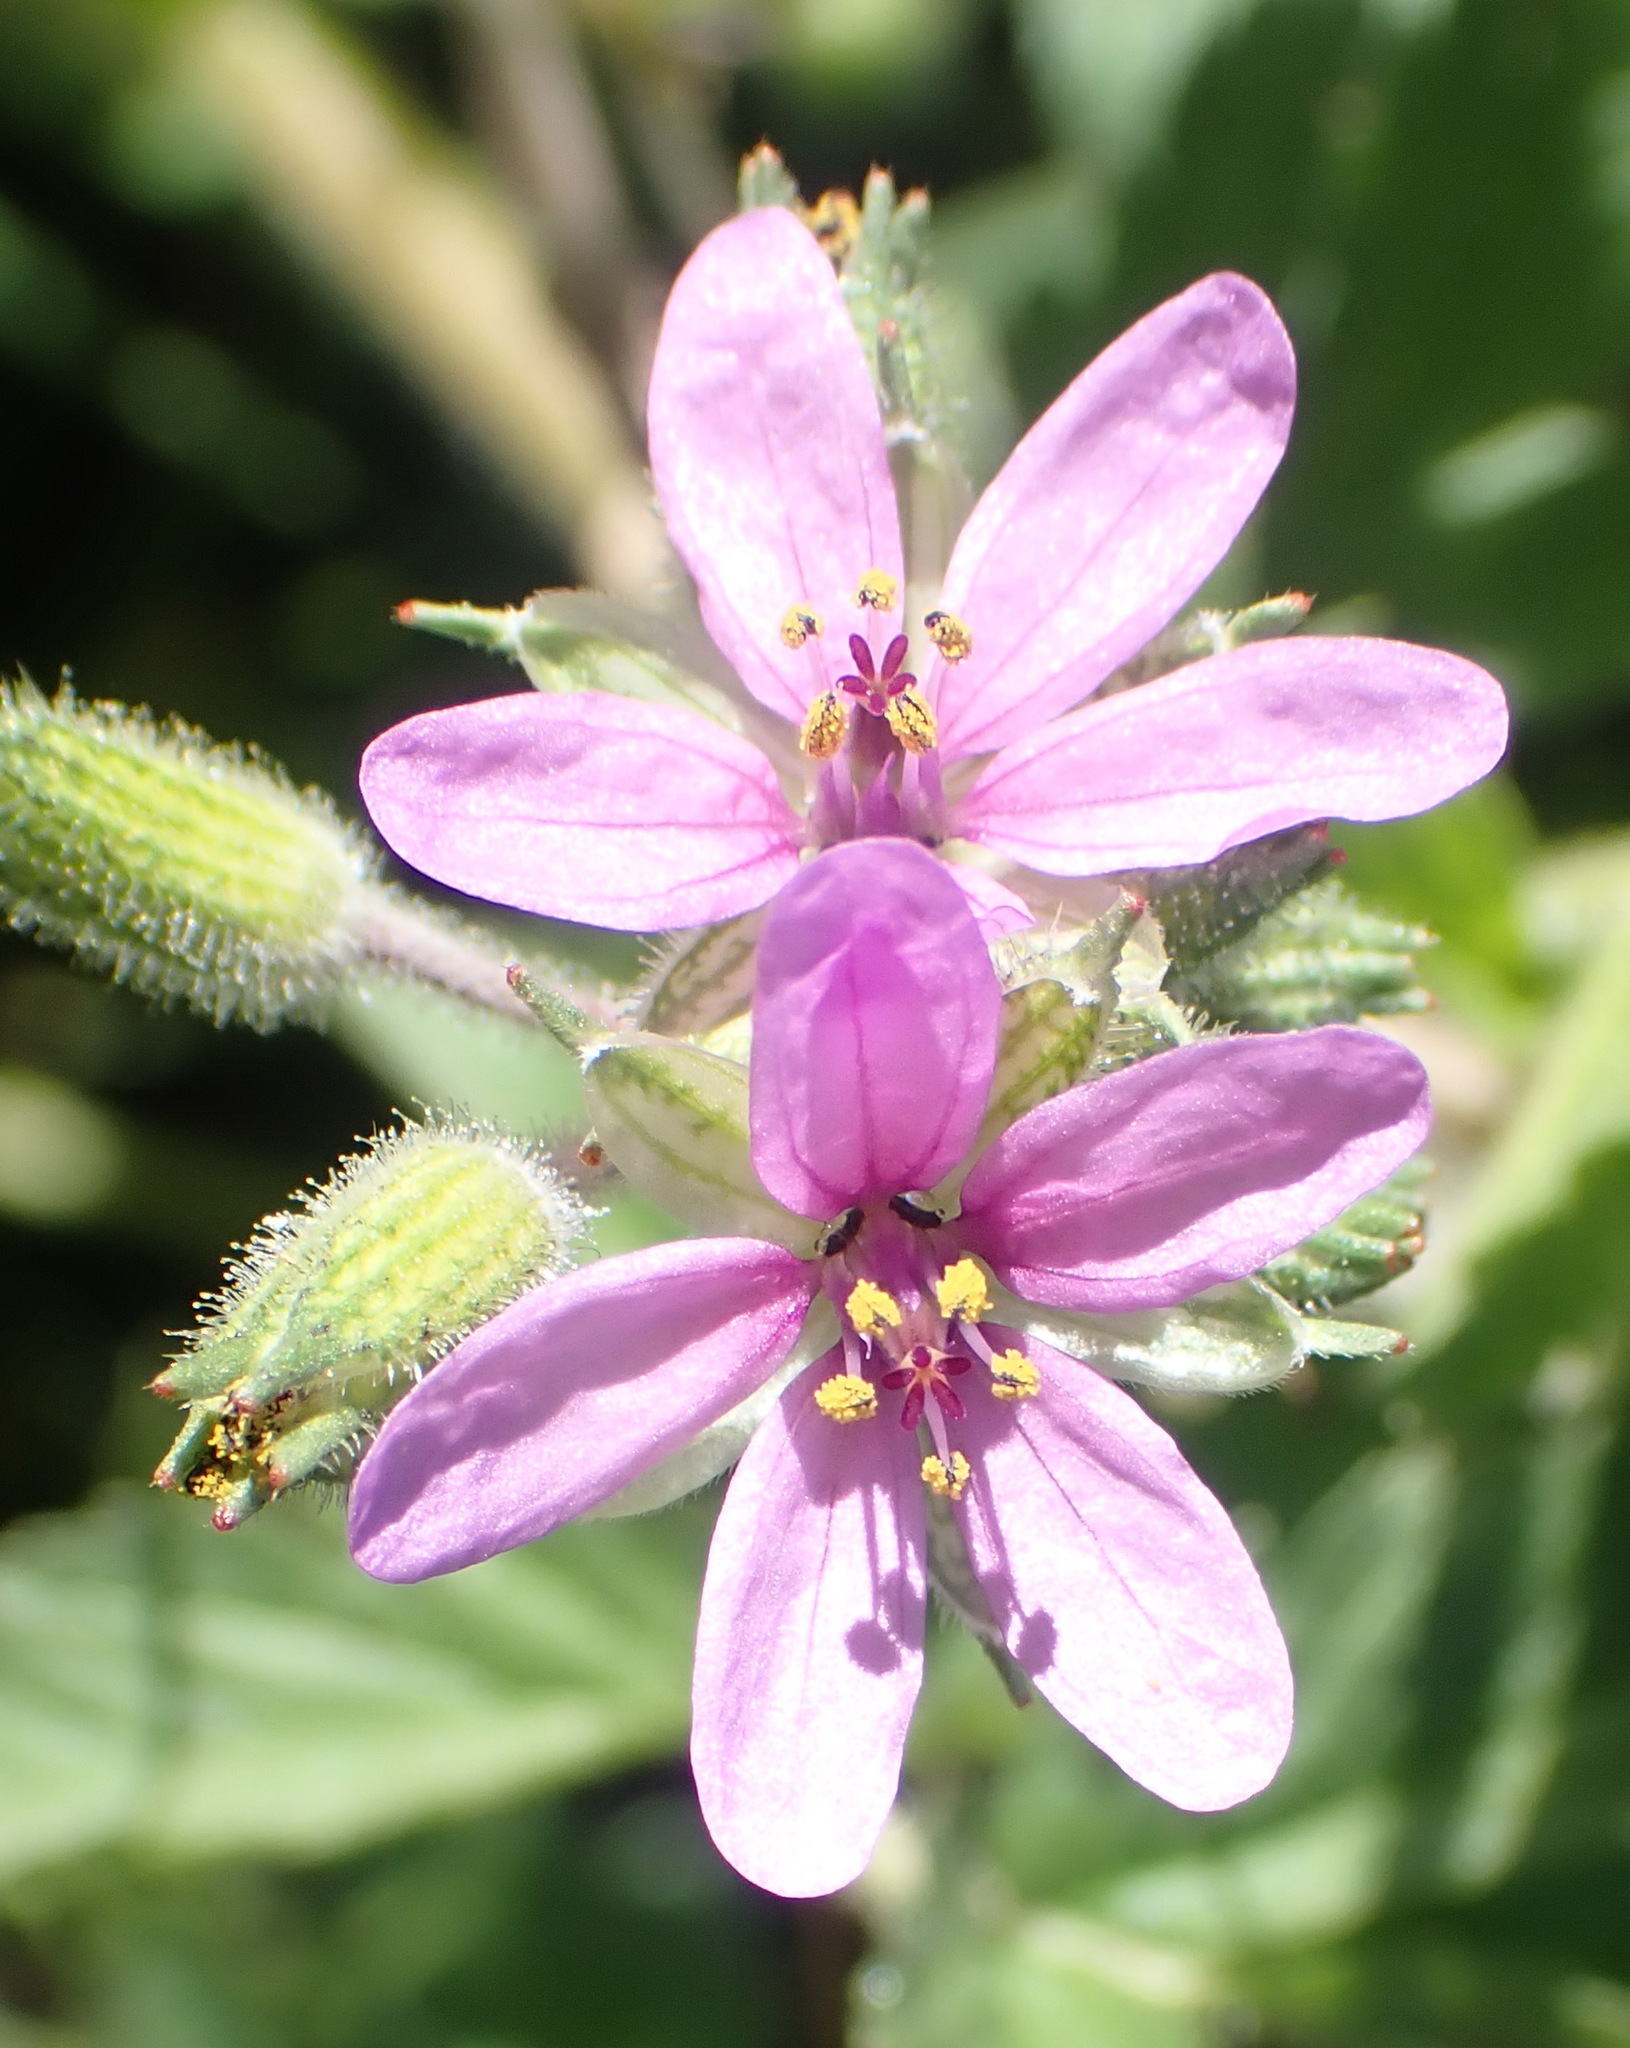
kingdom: Plantae
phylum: Tracheophyta
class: Magnoliopsida
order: Geraniales
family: Geraniaceae
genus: Erodium
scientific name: Erodium moschatum
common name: Musk stork's-bill
